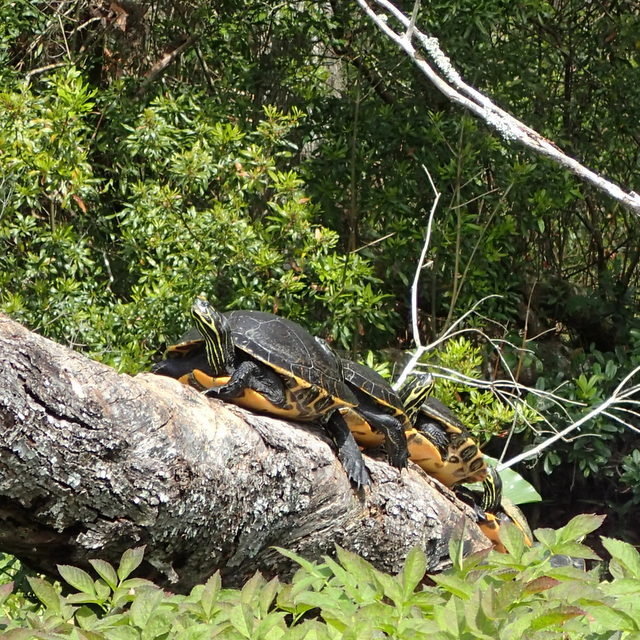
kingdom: Animalia
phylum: Chordata
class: Testudines
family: Emydidae
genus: Pseudemys
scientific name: Pseudemys concinna
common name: Eastern river cooter
